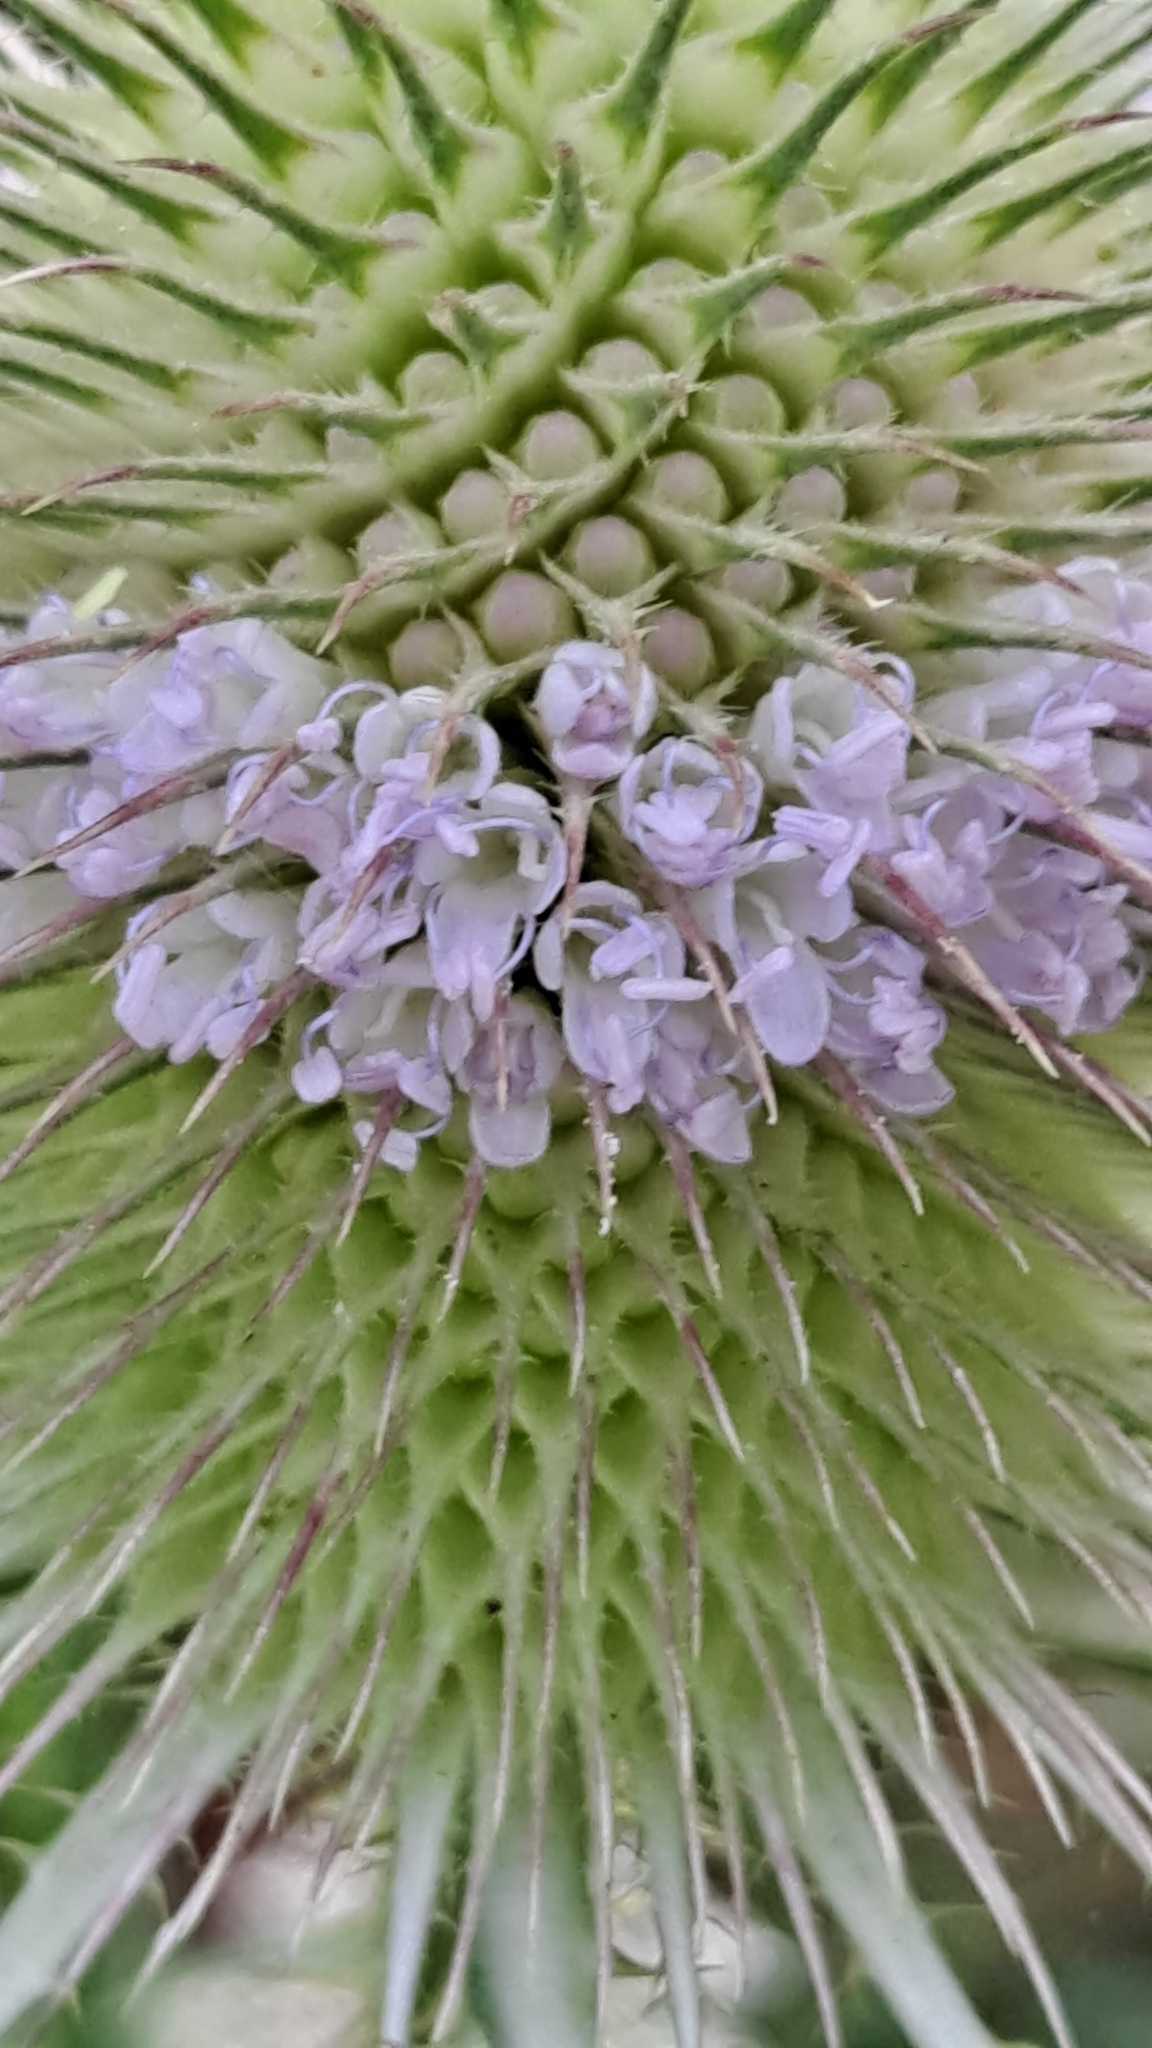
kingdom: Plantae
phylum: Tracheophyta
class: Magnoliopsida
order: Dipsacales
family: Caprifoliaceae
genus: Dipsacus
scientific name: Dipsacus fullonum
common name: Teasel
